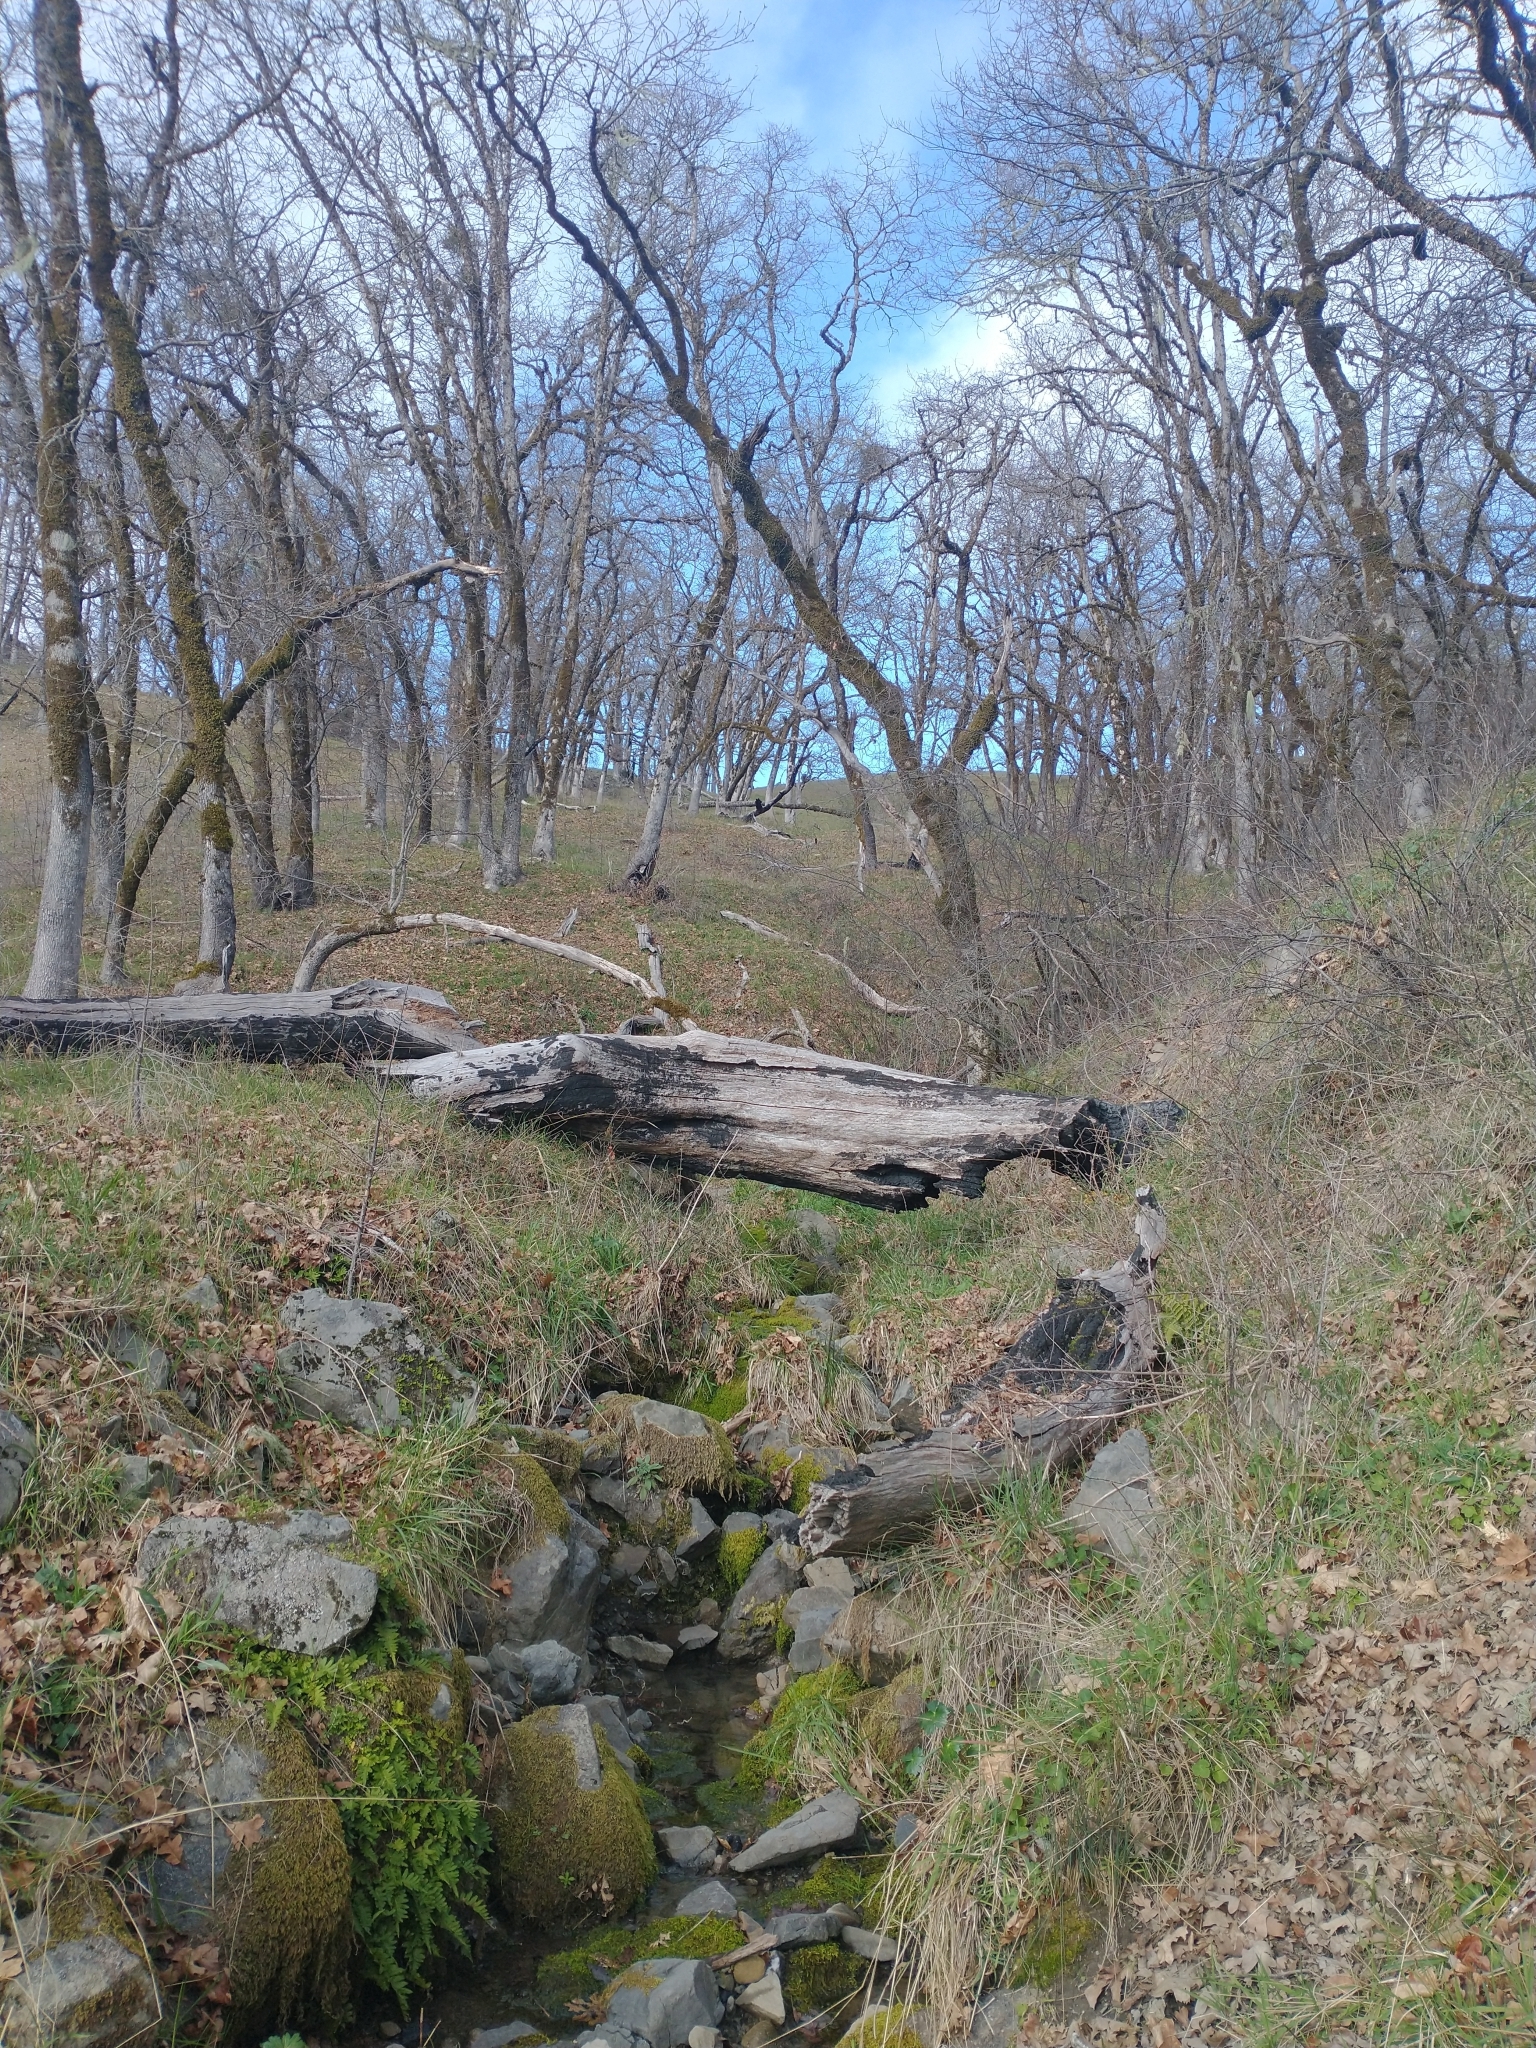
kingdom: Plantae
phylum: Tracheophyta
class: Magnoliopsida
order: Fagales
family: Fagaceae
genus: Quercus
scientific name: Quercus garryana
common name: Garry oak
